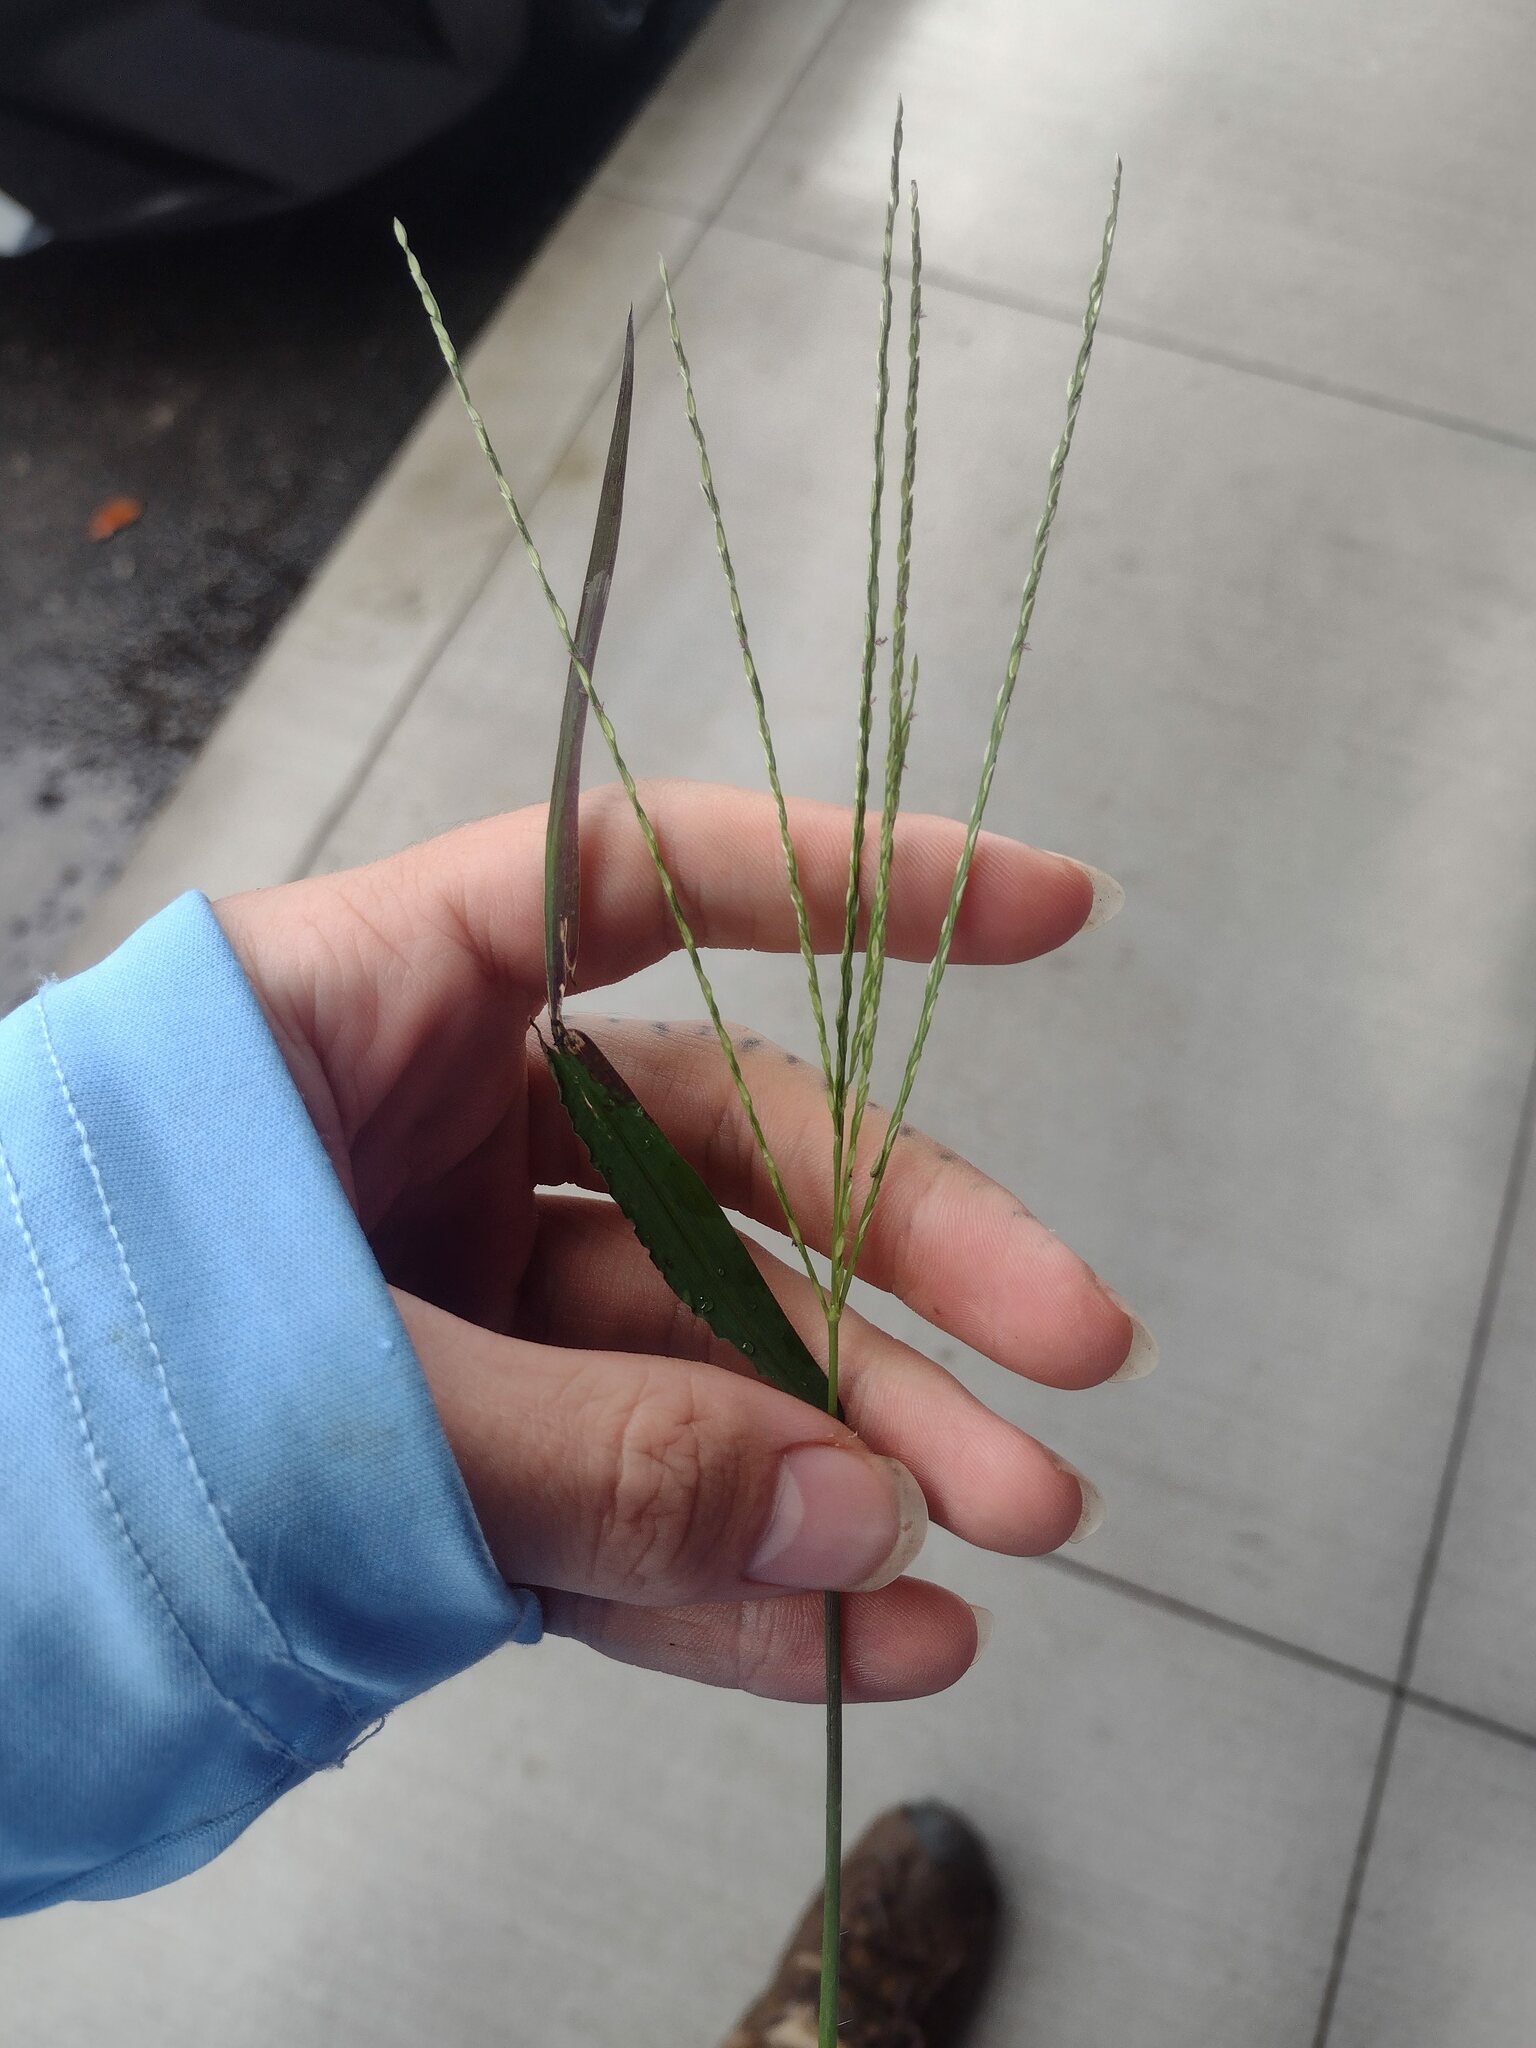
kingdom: Plantae
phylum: Tracheophyta
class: Liliopsida
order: Poales
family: Poaceae
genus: Digitaria
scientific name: Digitaria ciliaris
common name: Tropical finger-grass
